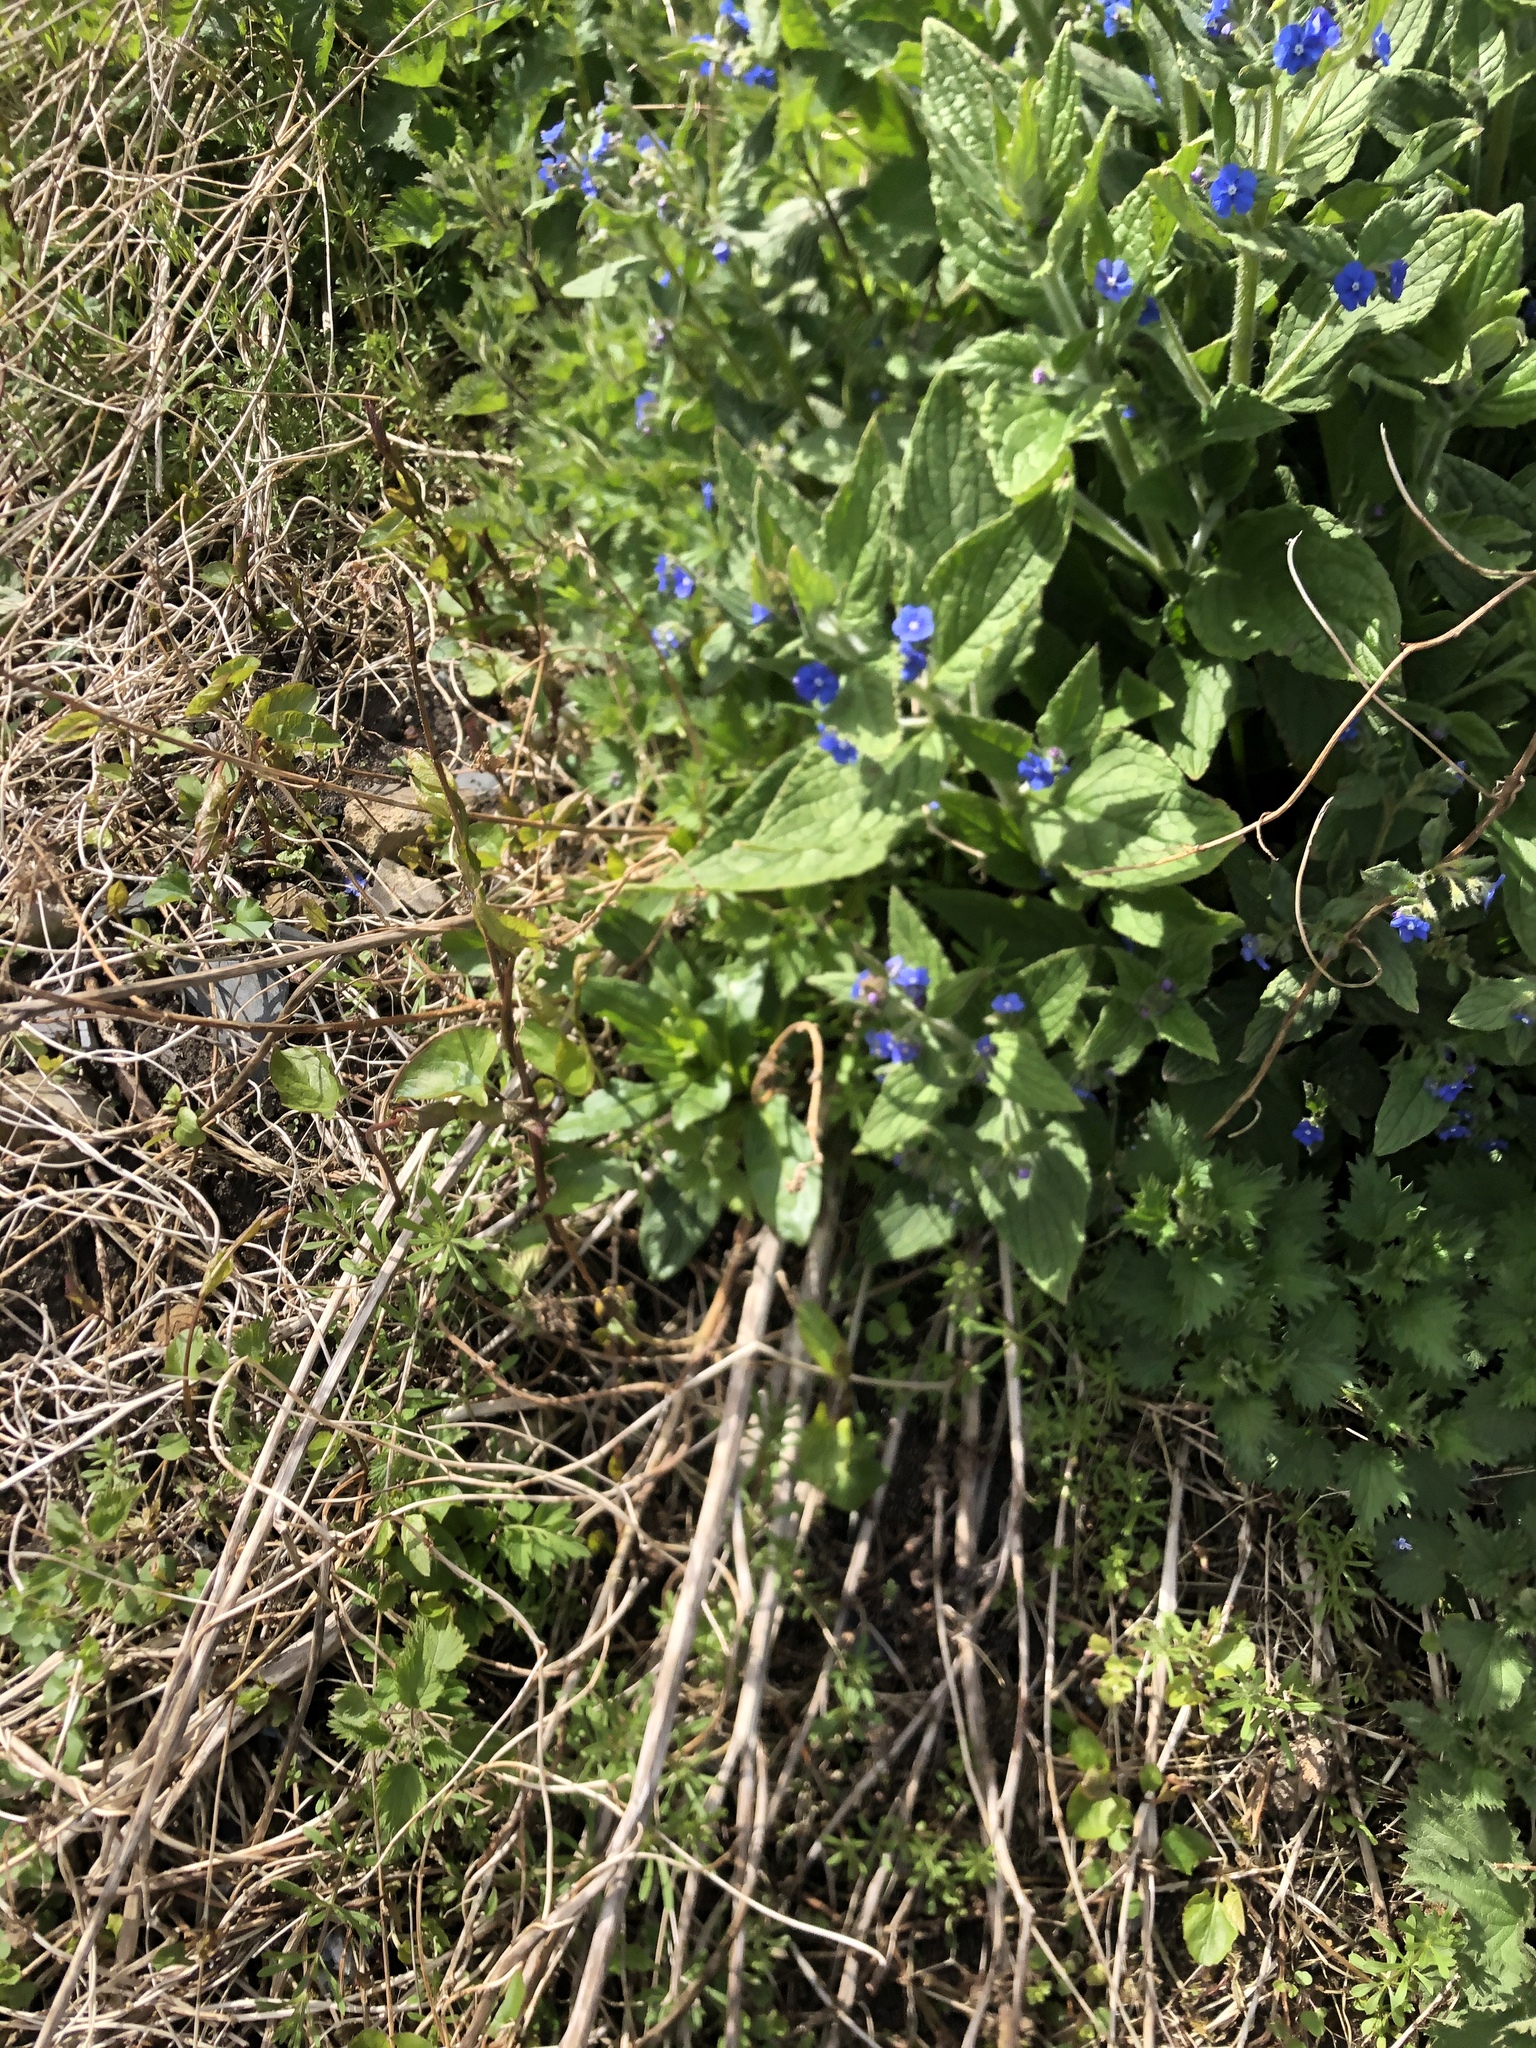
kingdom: Plantae
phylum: Tracheophyta
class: Magnoliopsida
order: Boraginales
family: Boraginaceae
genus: Pentaglottis
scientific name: Pentaglottis sempervirens
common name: Green alkanet
